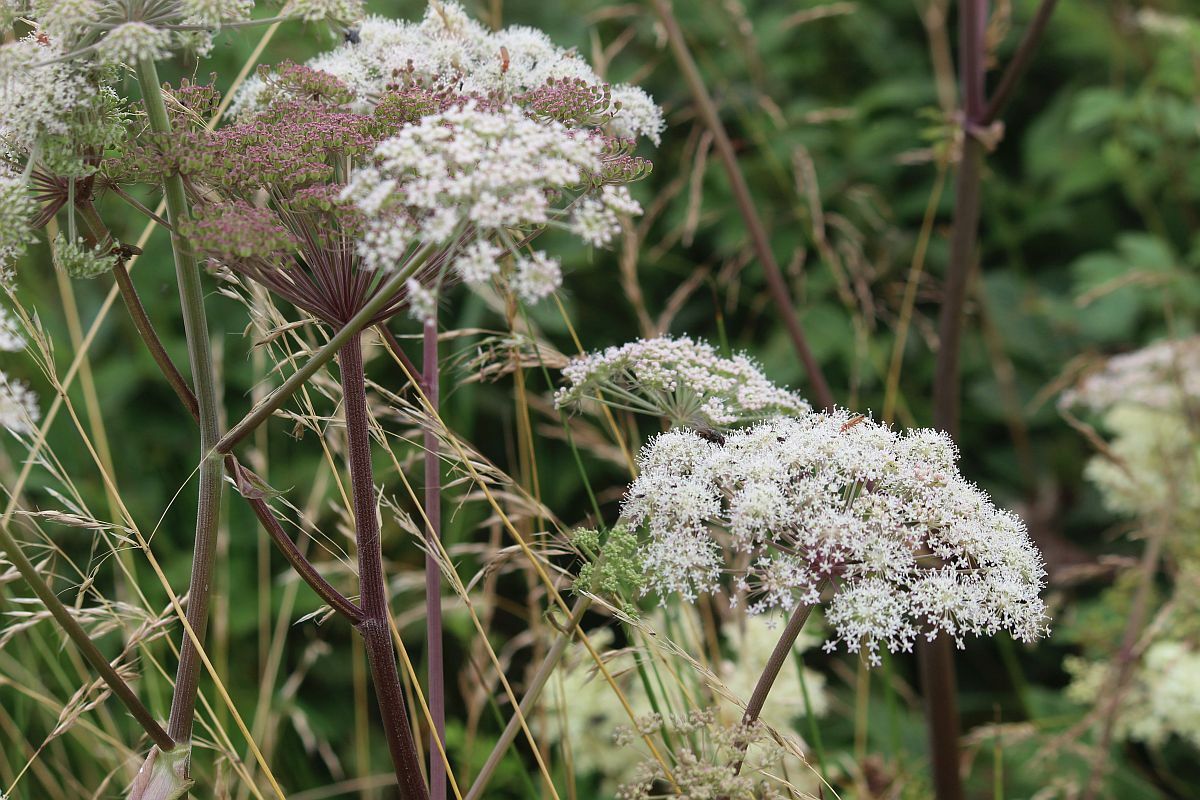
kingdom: Plantae
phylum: Tracheophyta
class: Magnoliopsida
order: Apiales
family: Apiaceae
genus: Angelica
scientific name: Angelica sylvestris
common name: Wild angelica
